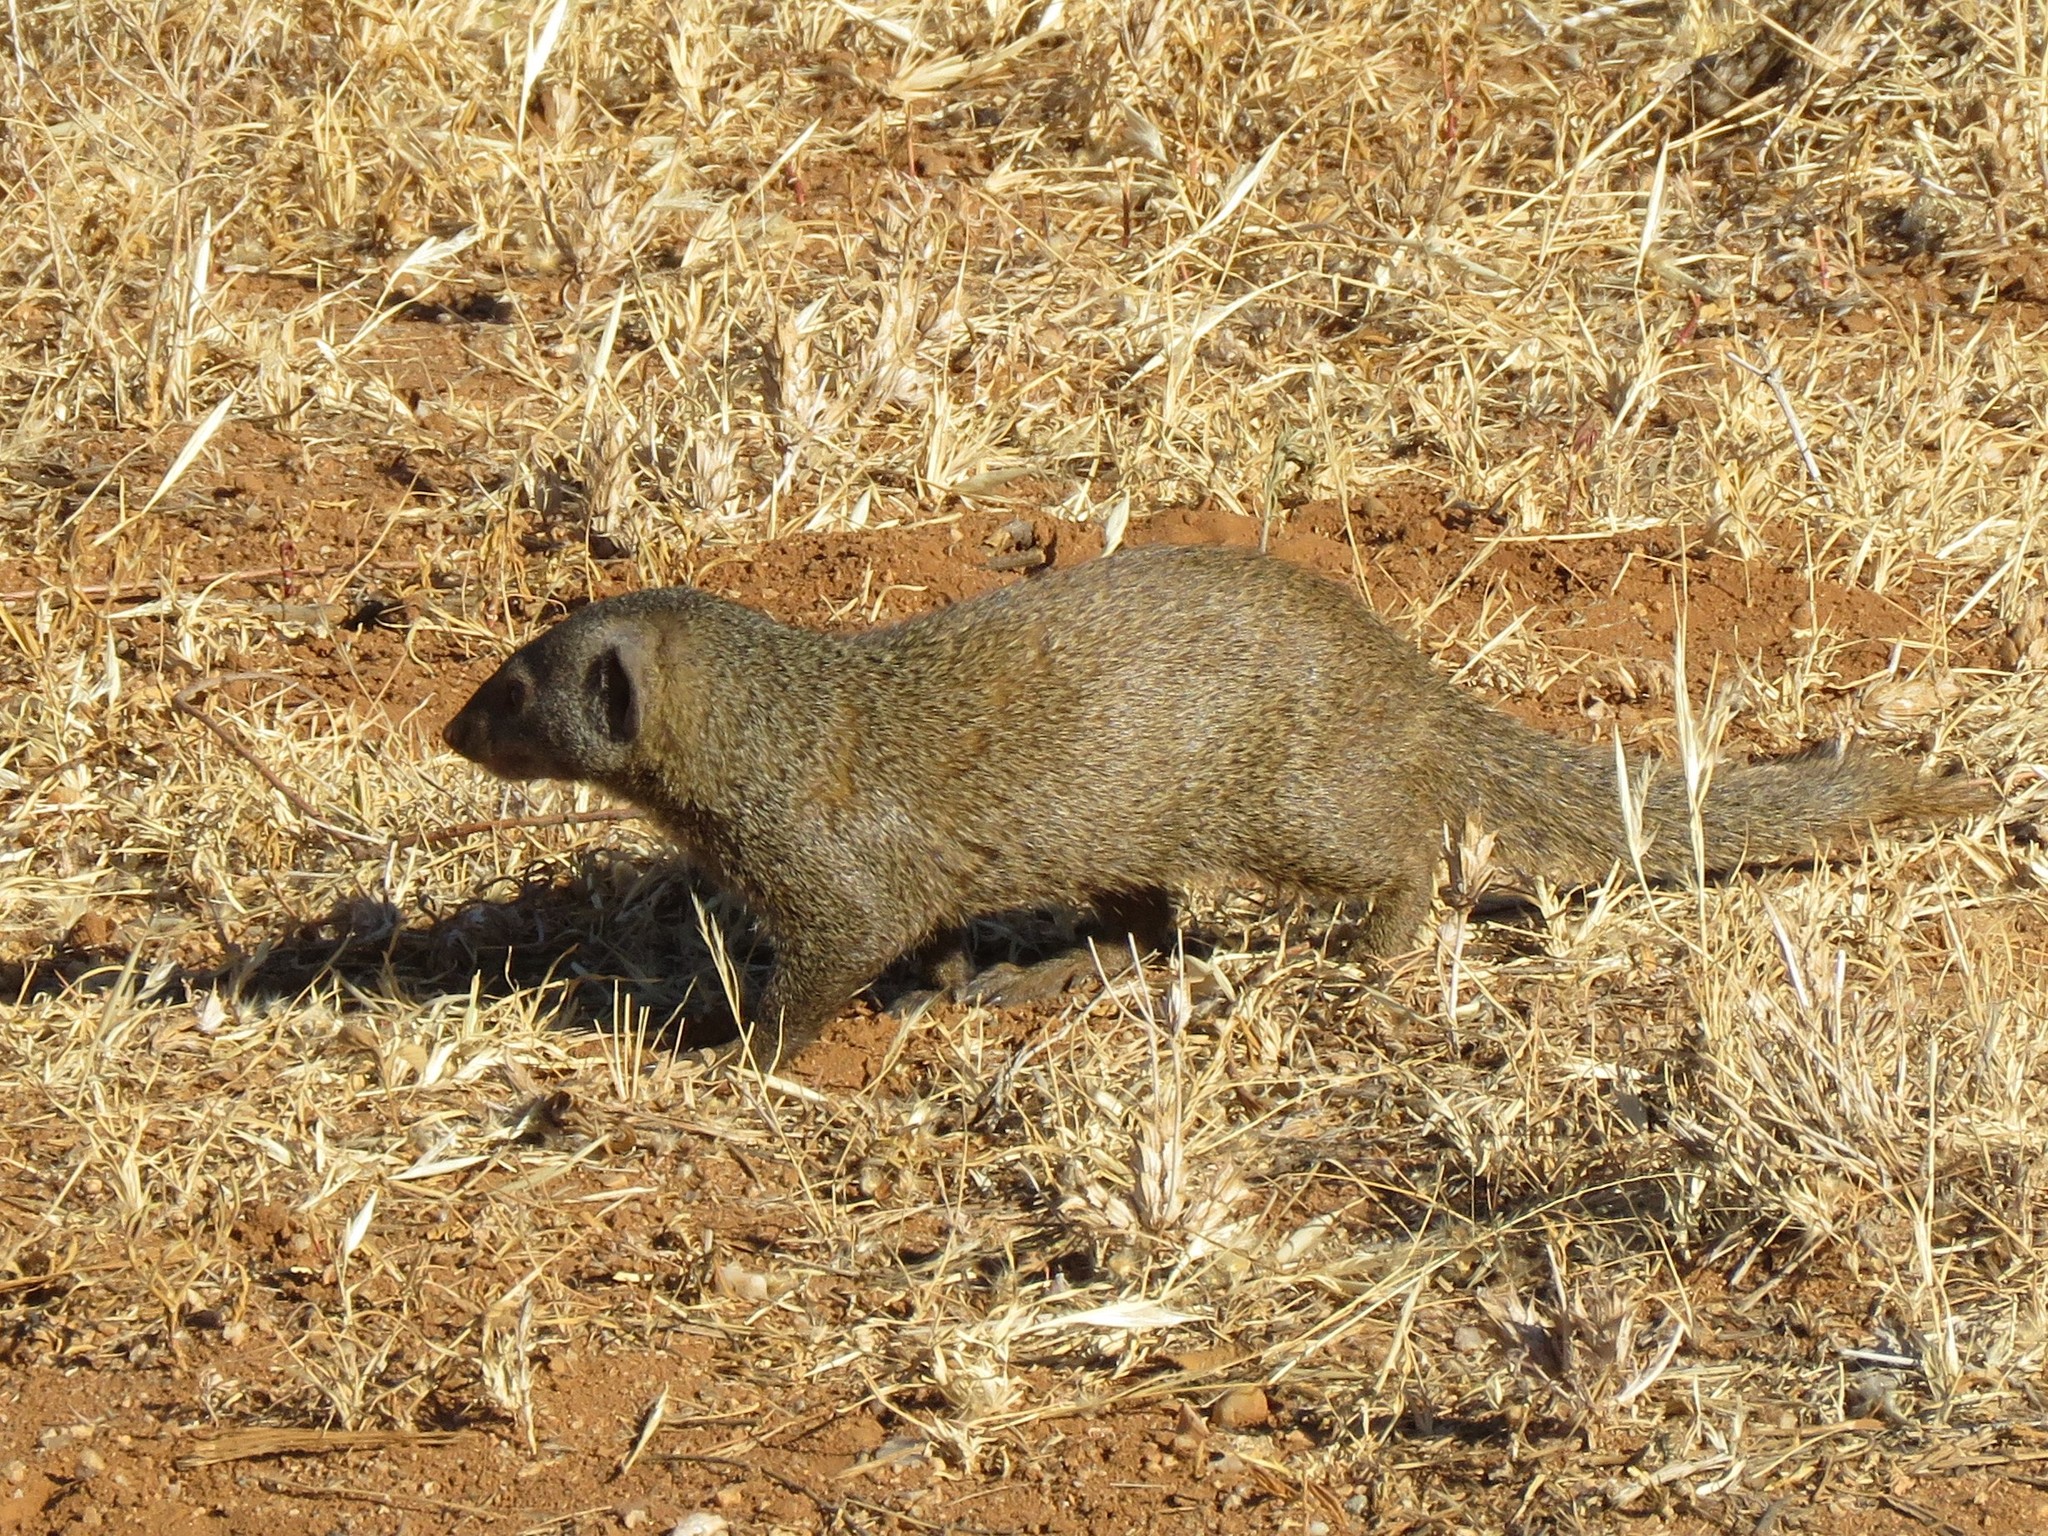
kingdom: Animalia
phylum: Chordata
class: Mammalia
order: Carnivora
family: Herpestidae
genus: Helogale
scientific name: Helogale parvula
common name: Common dwarf mongoose
